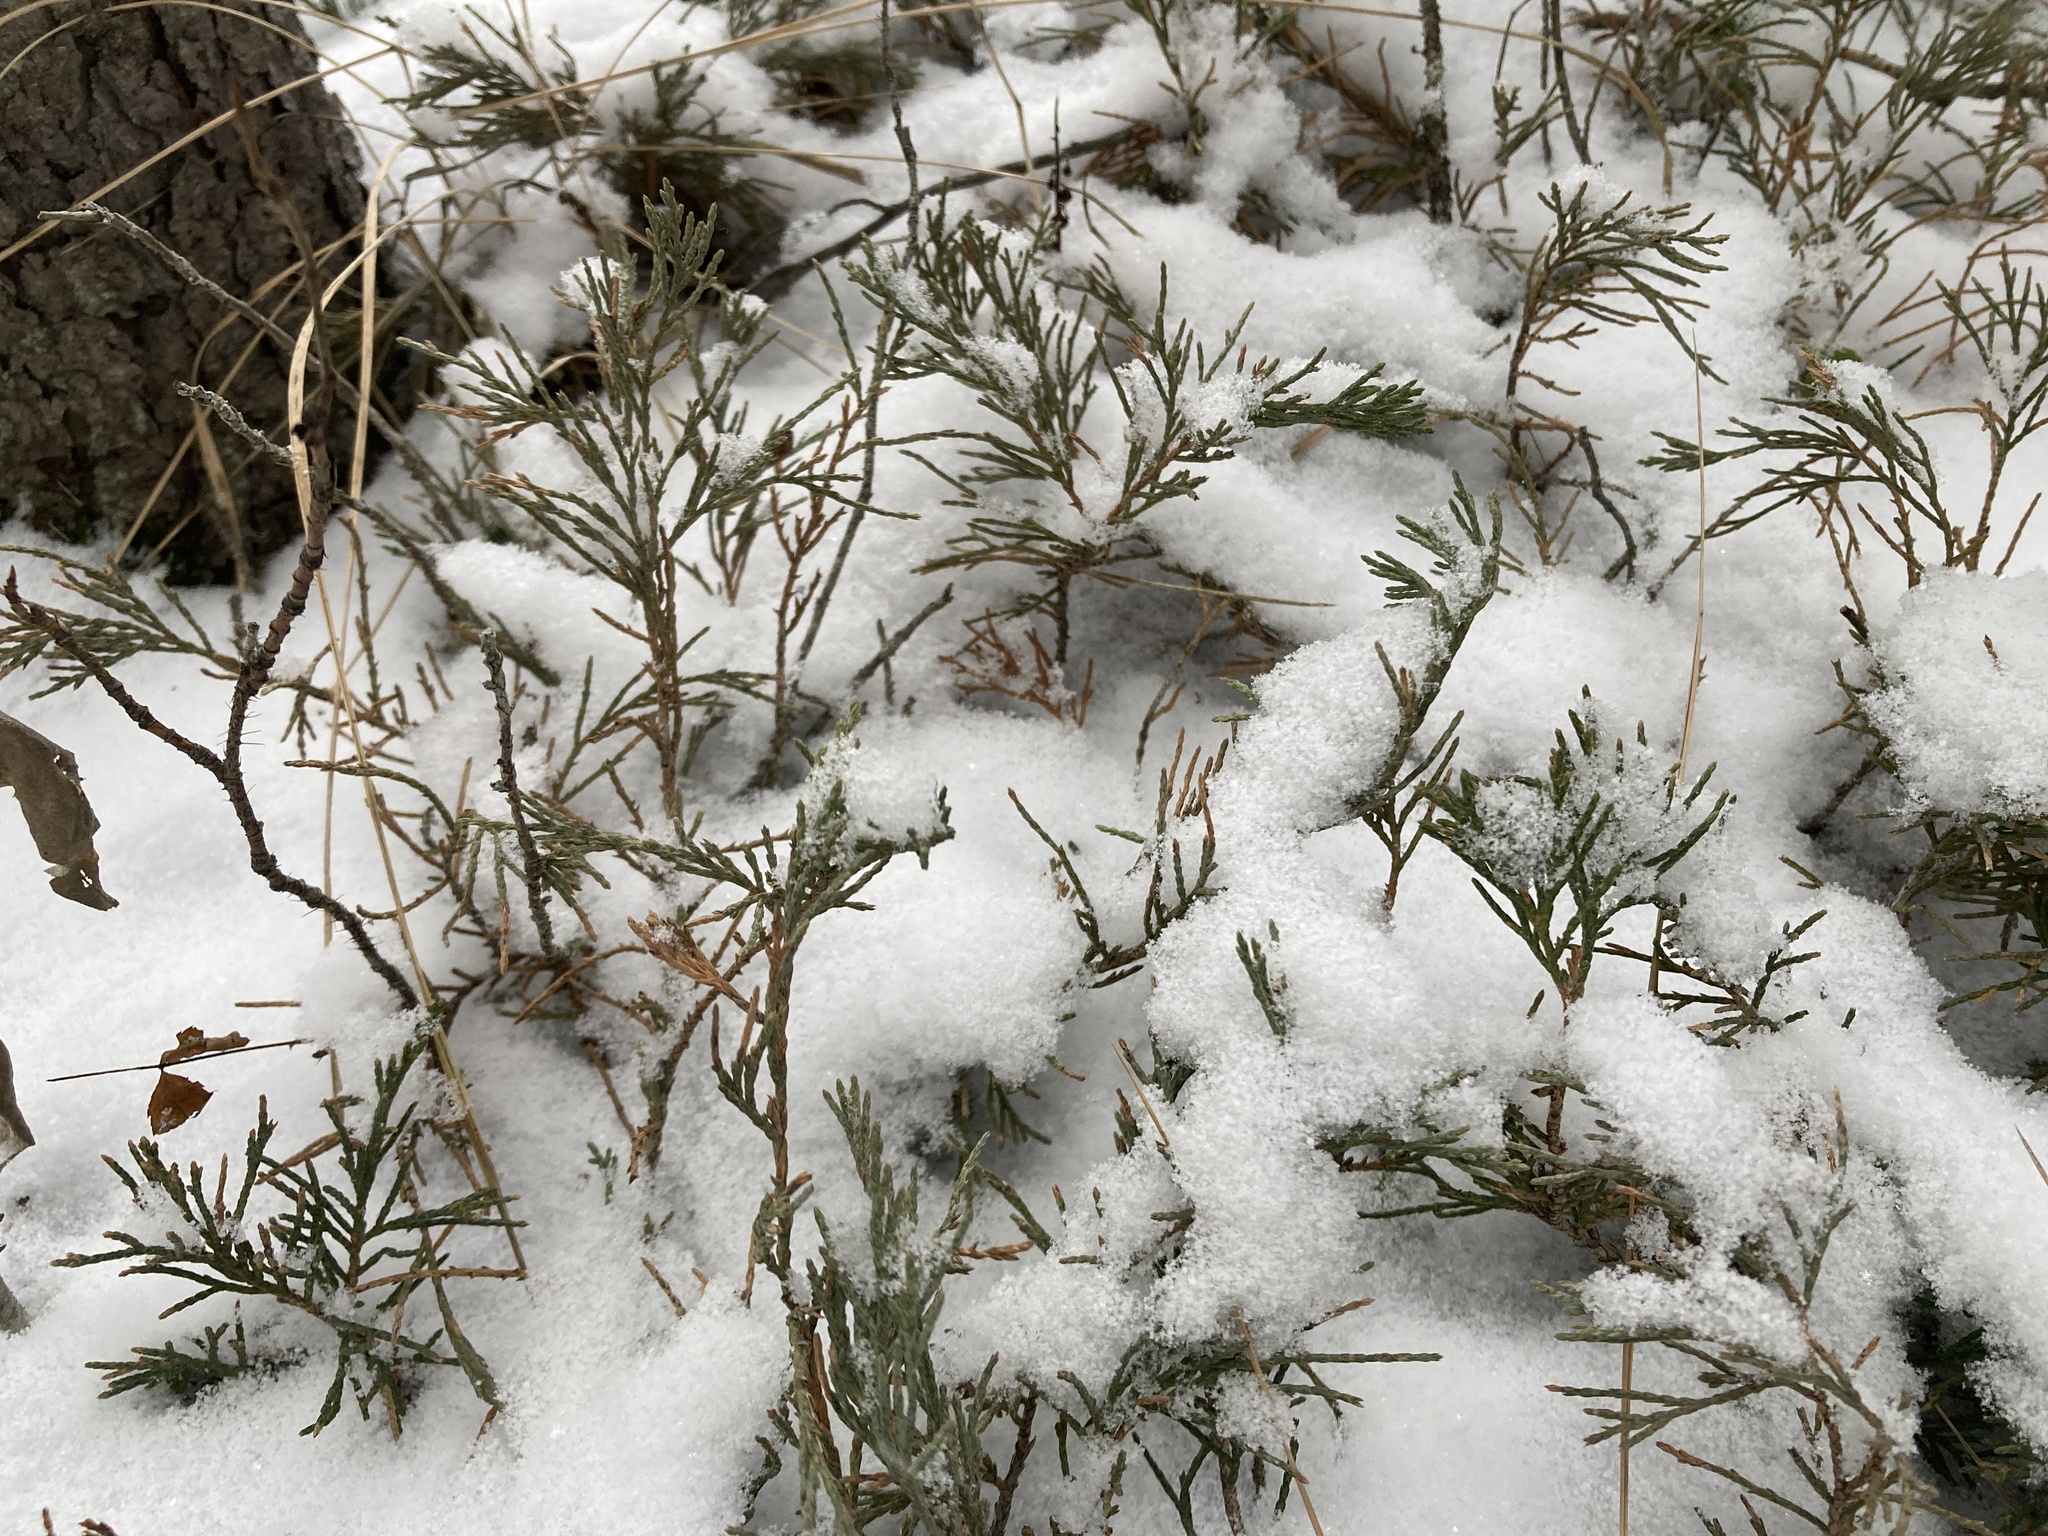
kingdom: Plantae
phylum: Tracheophyta
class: Pinopsida
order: Pinales
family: Cupressaceae
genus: Juniperus
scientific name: Juniperus horizontalis
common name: Creeping juniper
